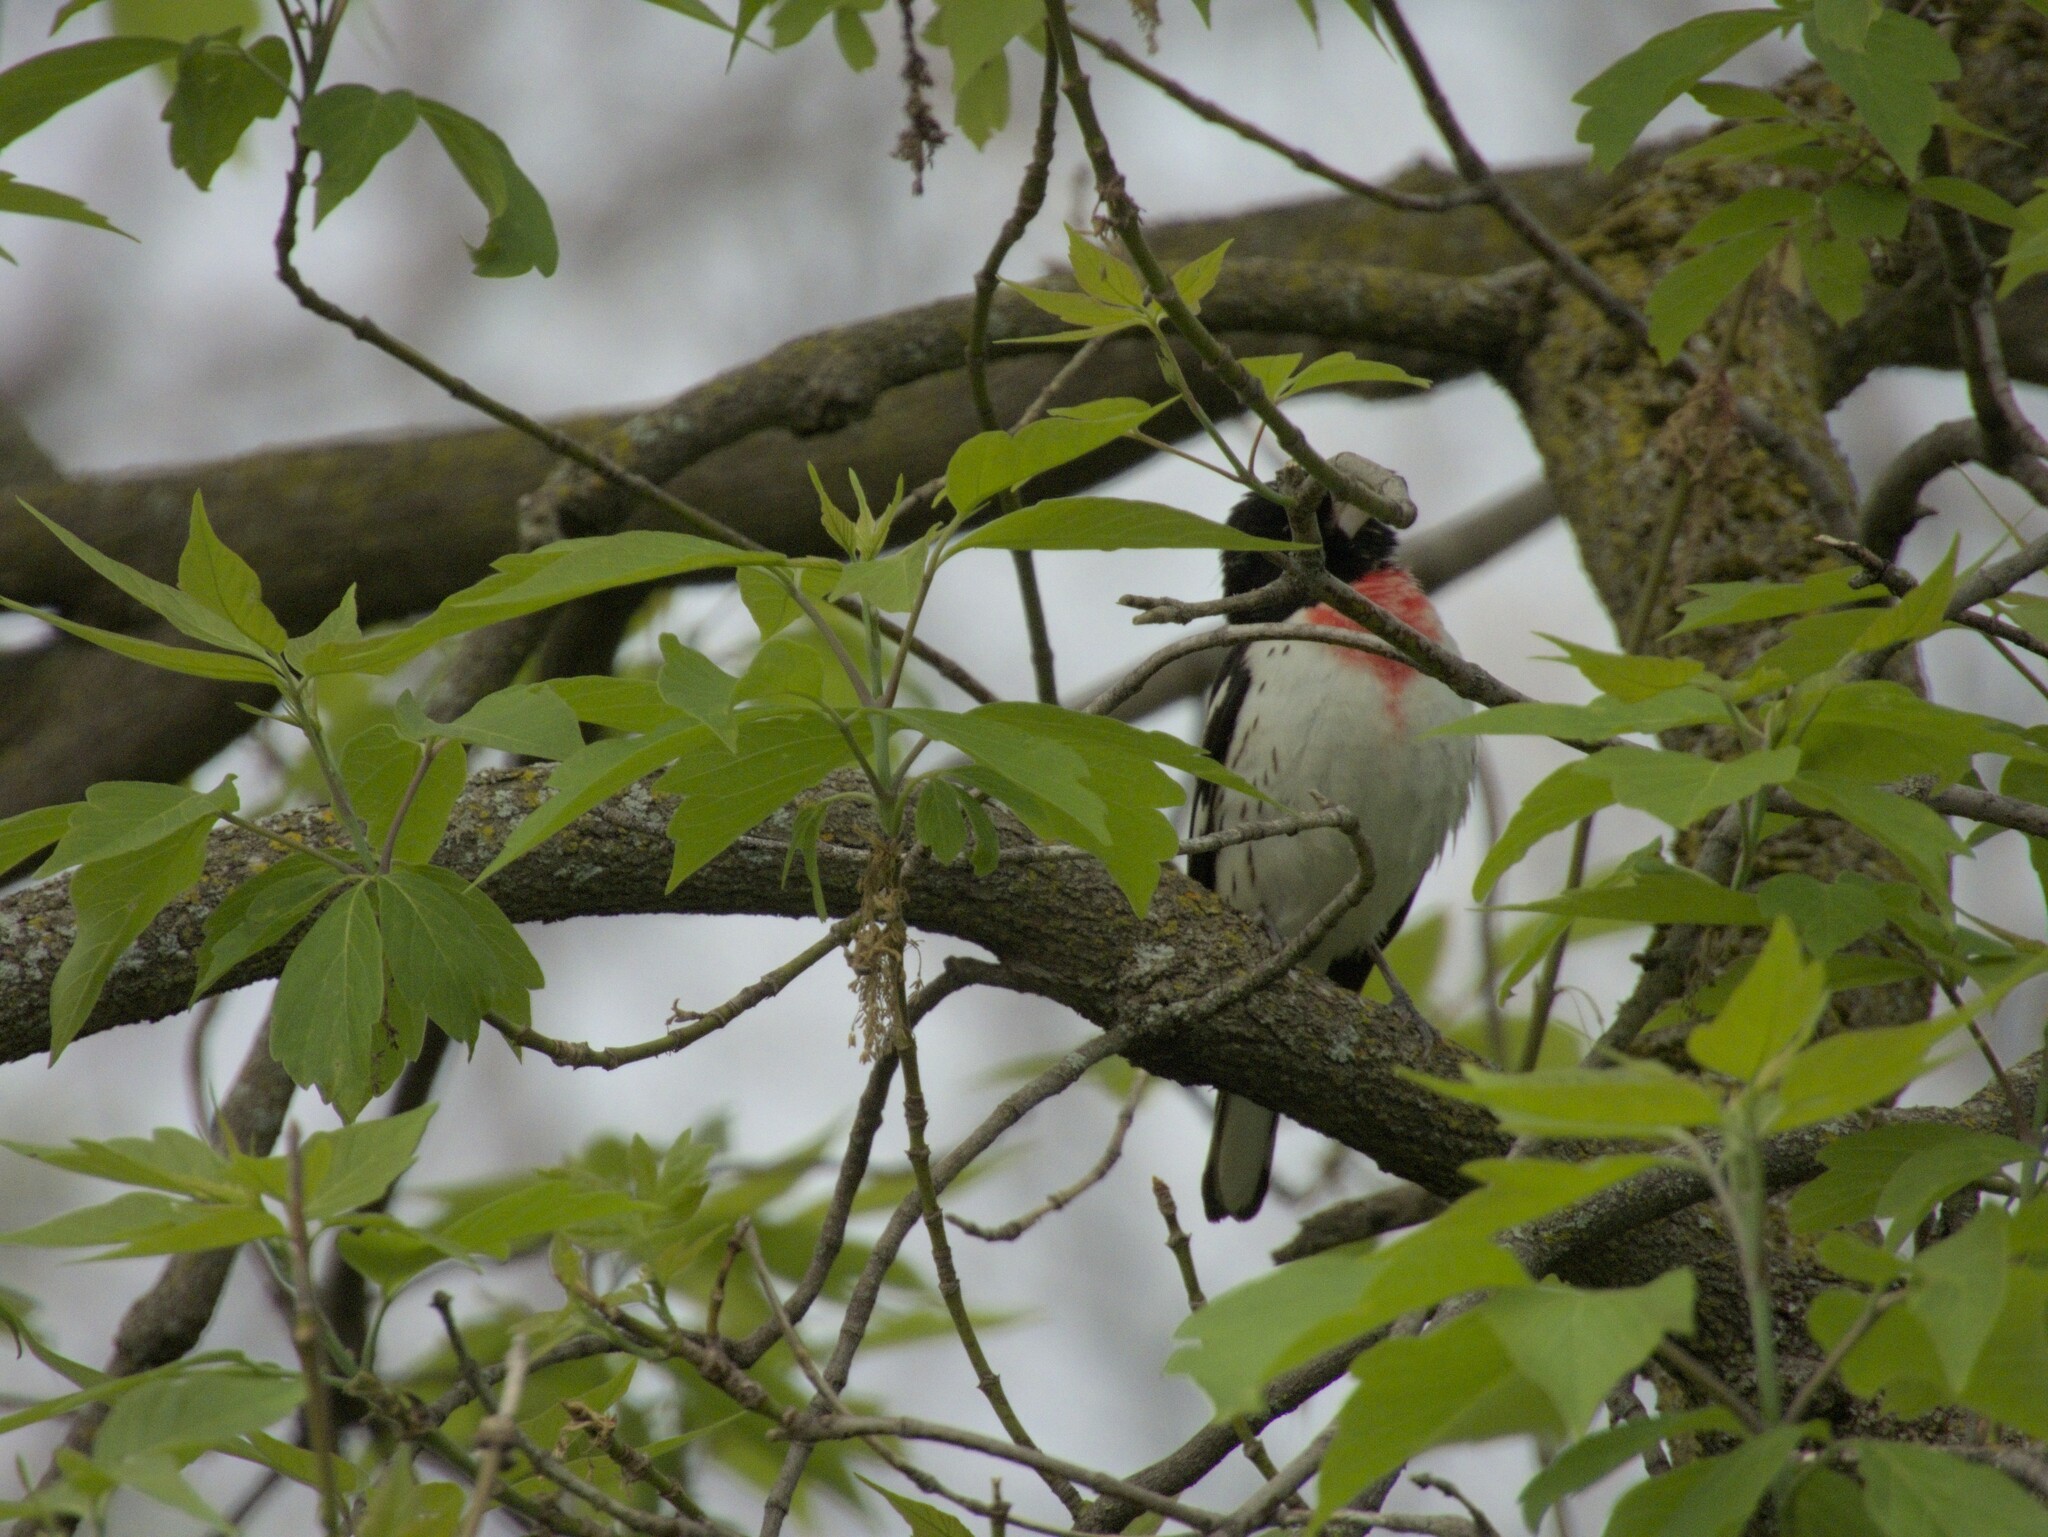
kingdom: Animalia
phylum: Chordata
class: Aves
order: Passeriformes
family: Cardinalidae
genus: Pheucticus
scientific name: Pheucticus ludovicianus
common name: Rose-breasted grosbeak
